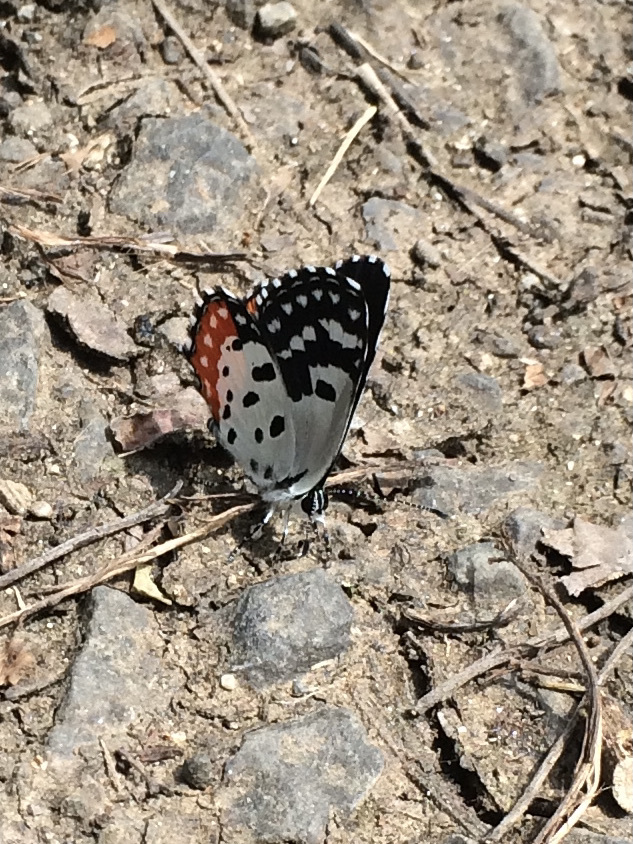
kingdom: Animalia
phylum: Arthropoda
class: Insecta
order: Lepidoptera
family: Lycaenidae
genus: Talicada
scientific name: Talicada nyseus
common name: Red pierrot
